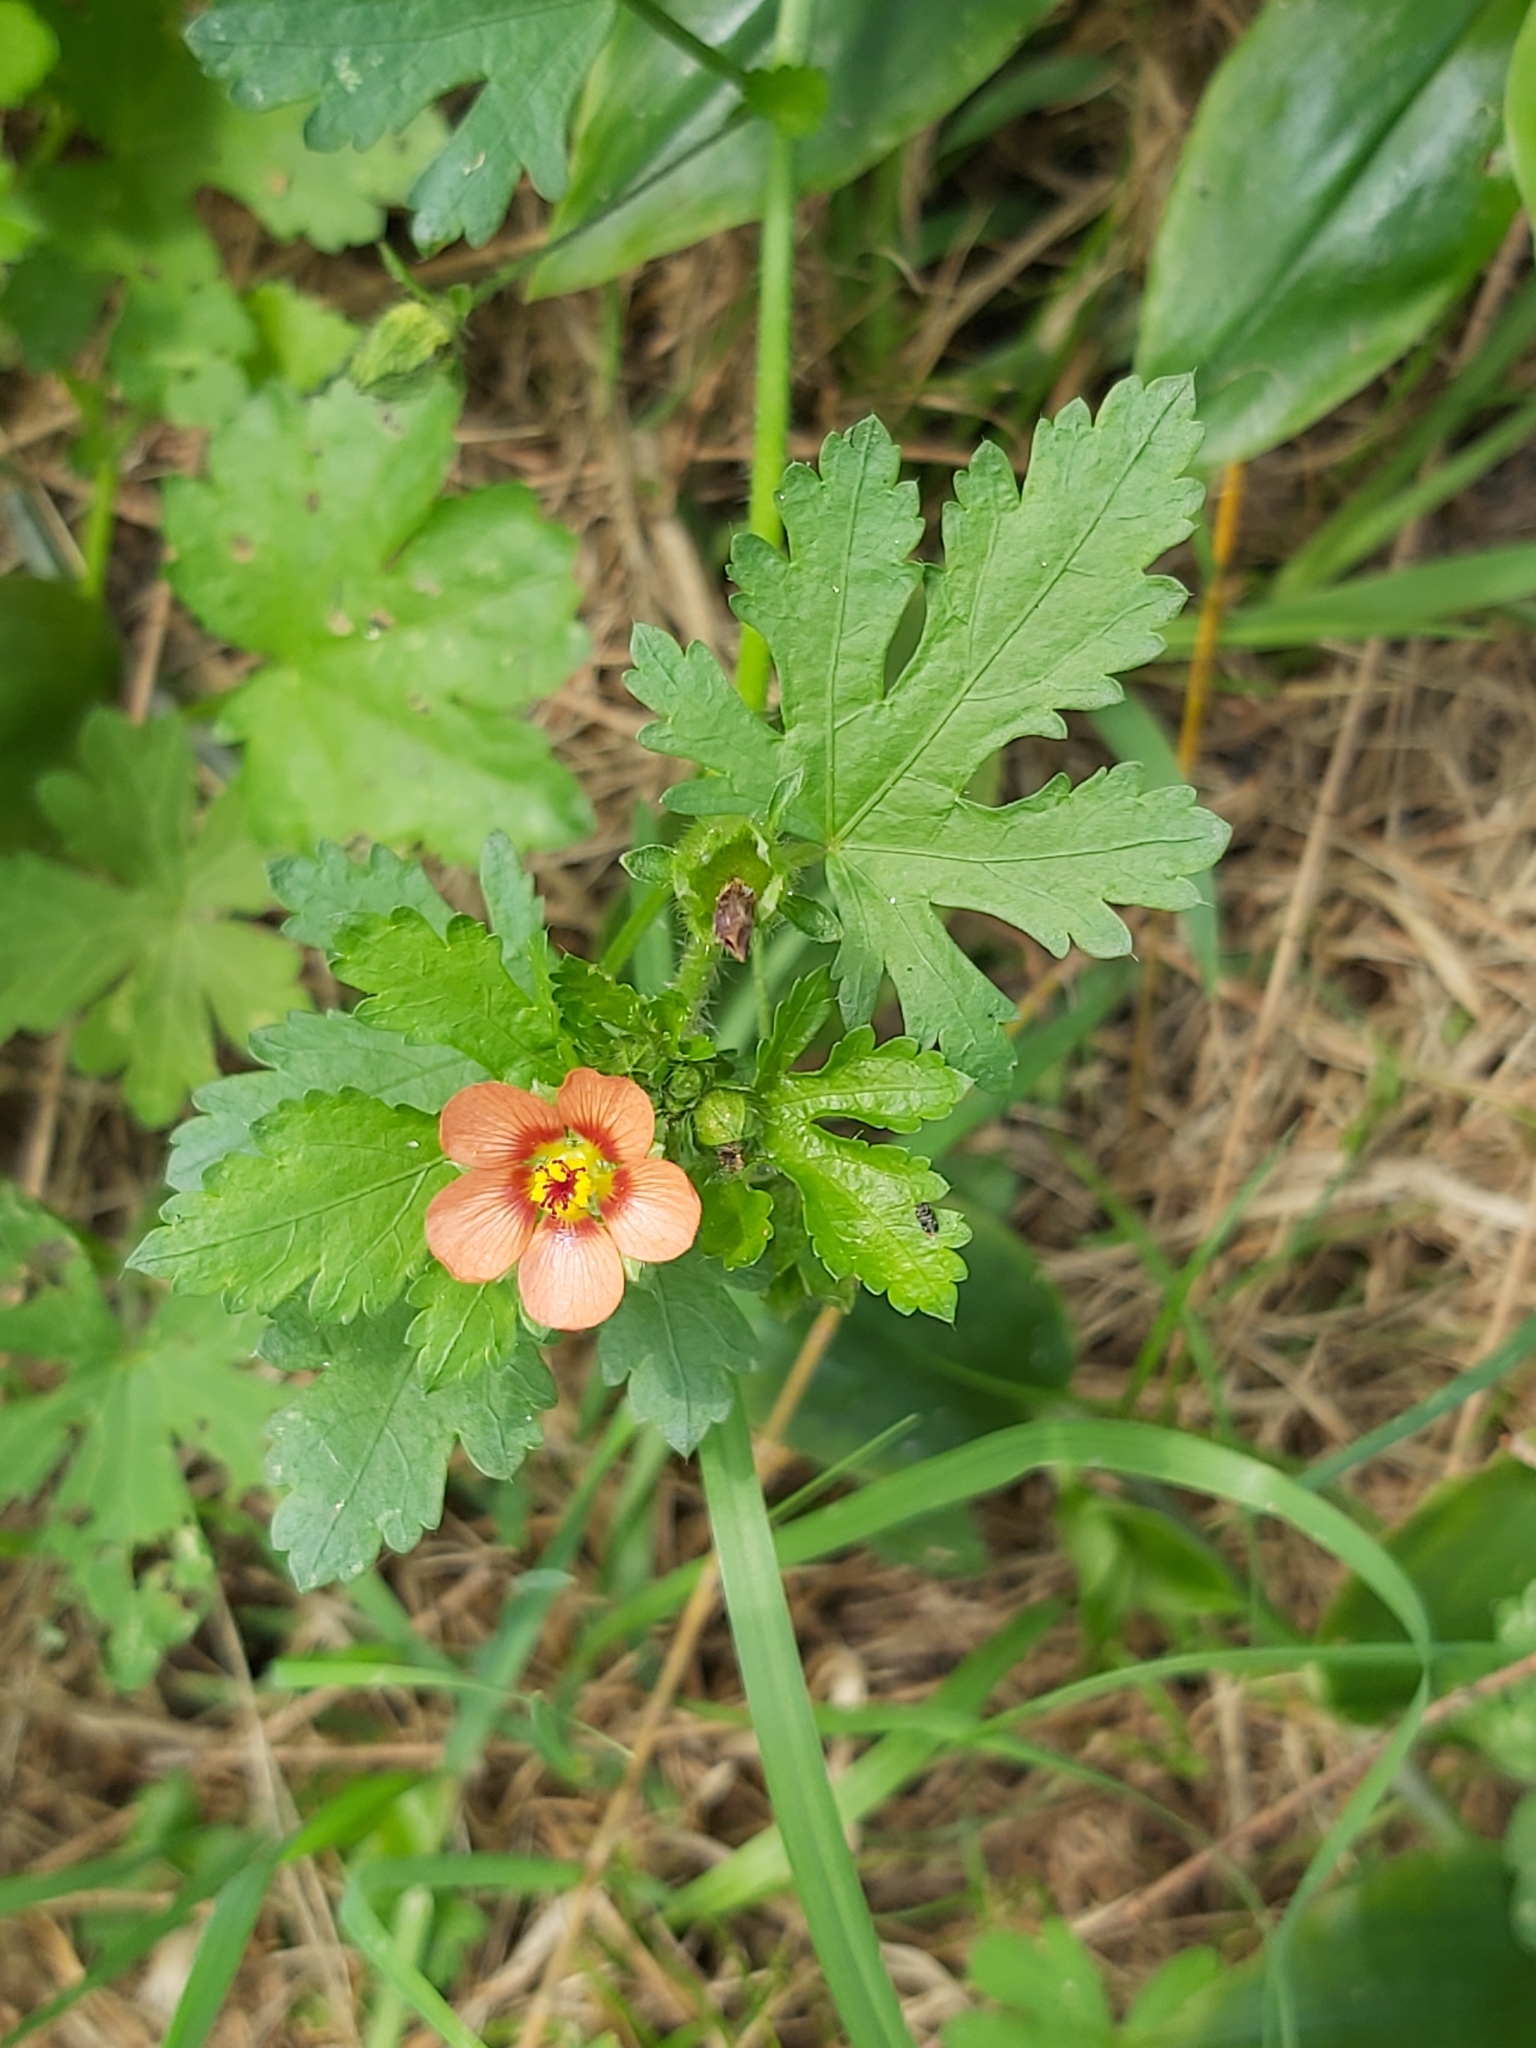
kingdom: Plantae
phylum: Tracheophyta
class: Magnoliopsida
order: Malvales
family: Malvaceae
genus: Modiola
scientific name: Modiola caroliniana
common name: Carolina bristlemallow
